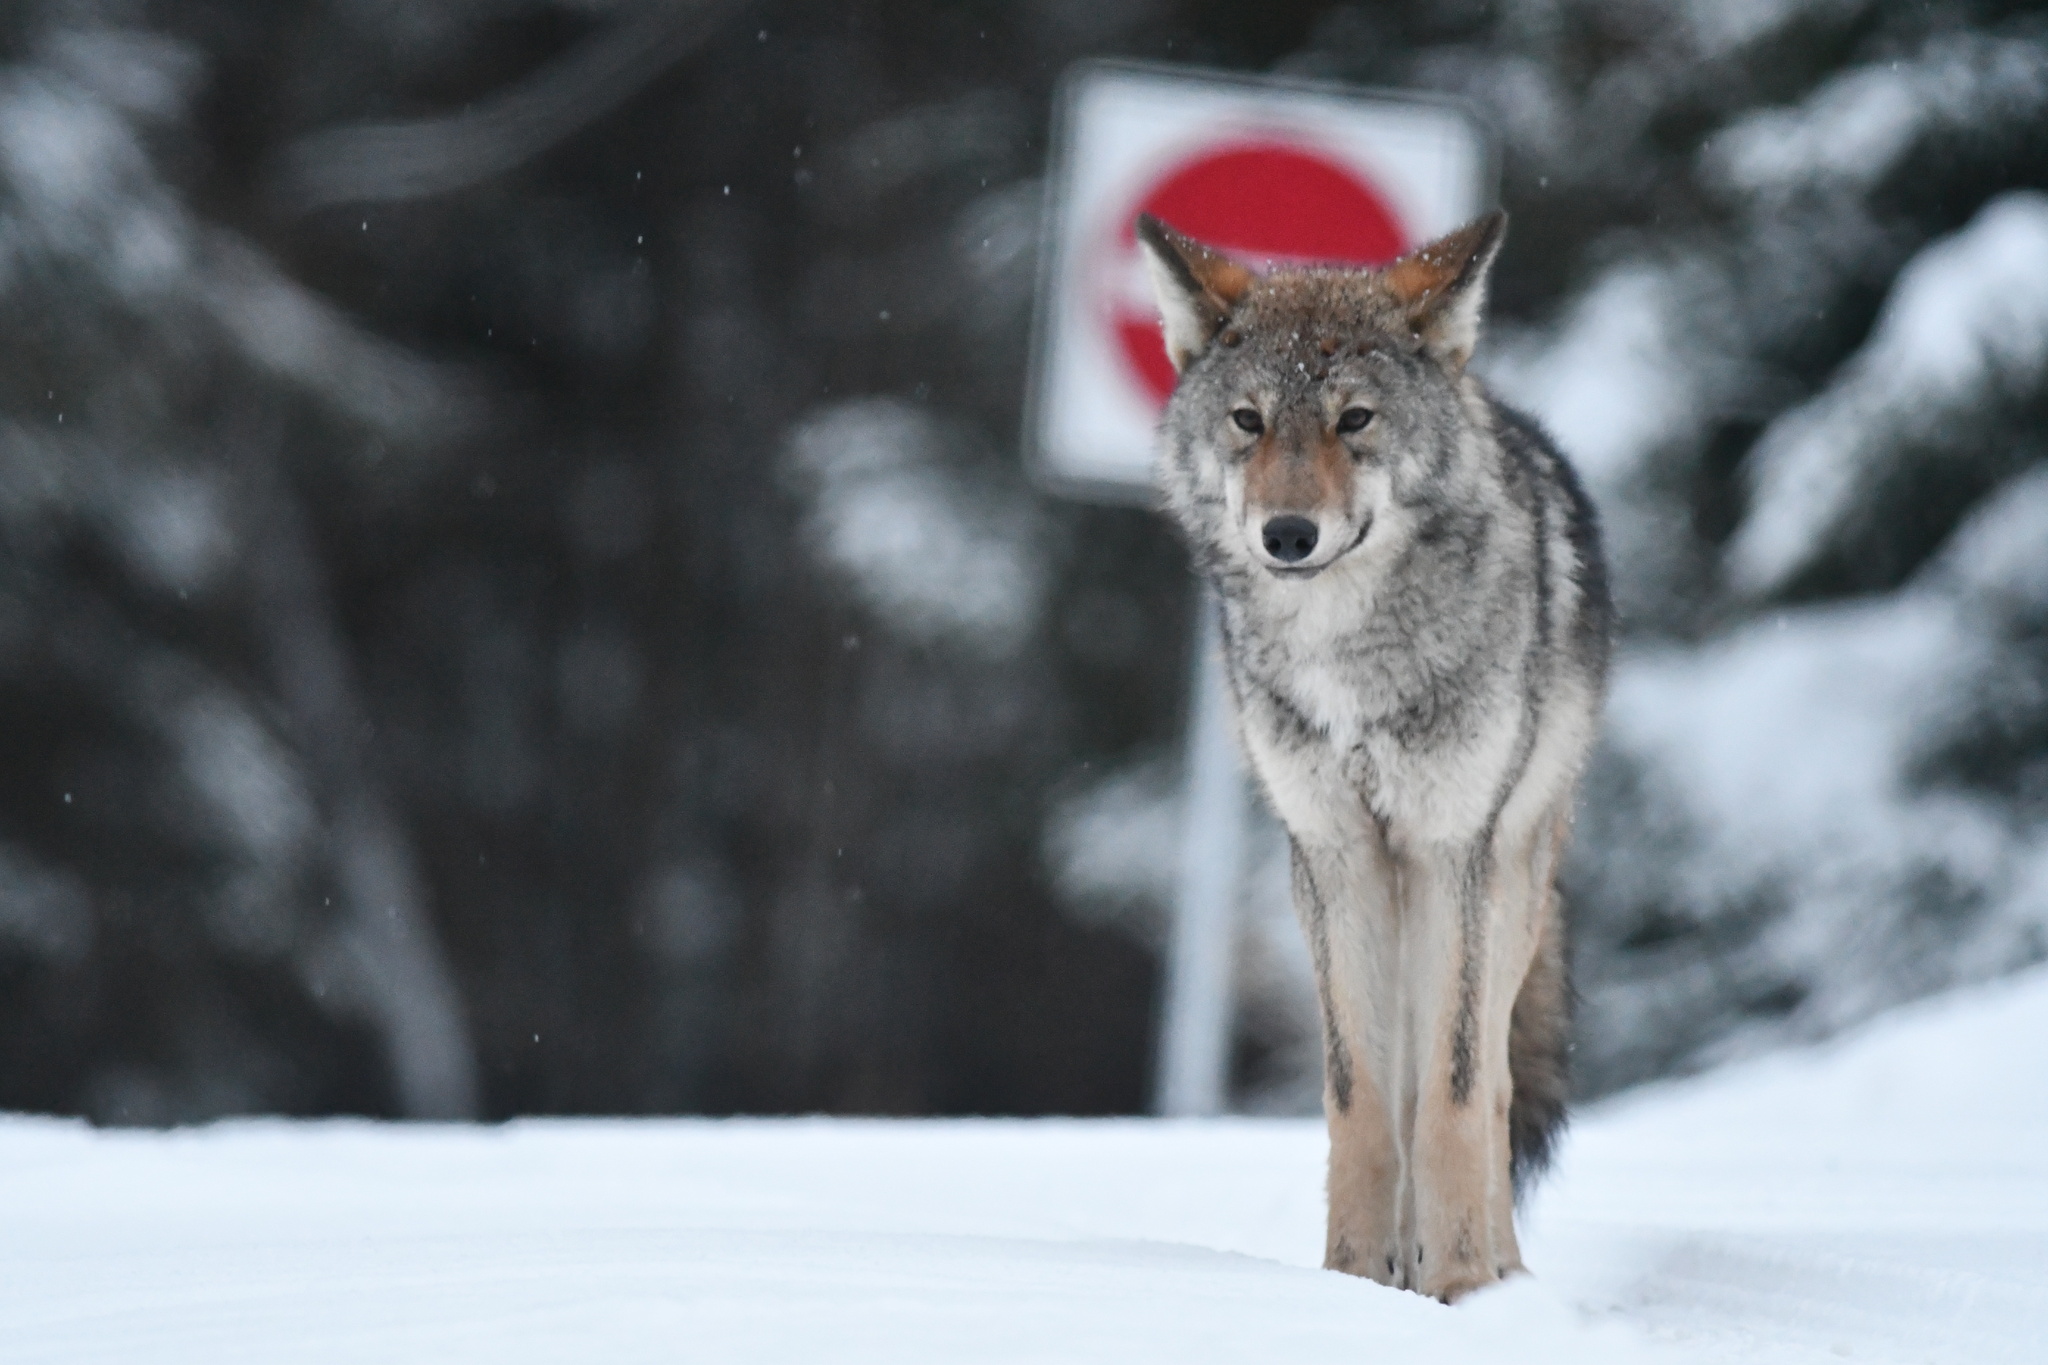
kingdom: Animalia
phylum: Chordata
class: Mammalia
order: Carnivora
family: Canidae
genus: Canis
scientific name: Canis lycaon
